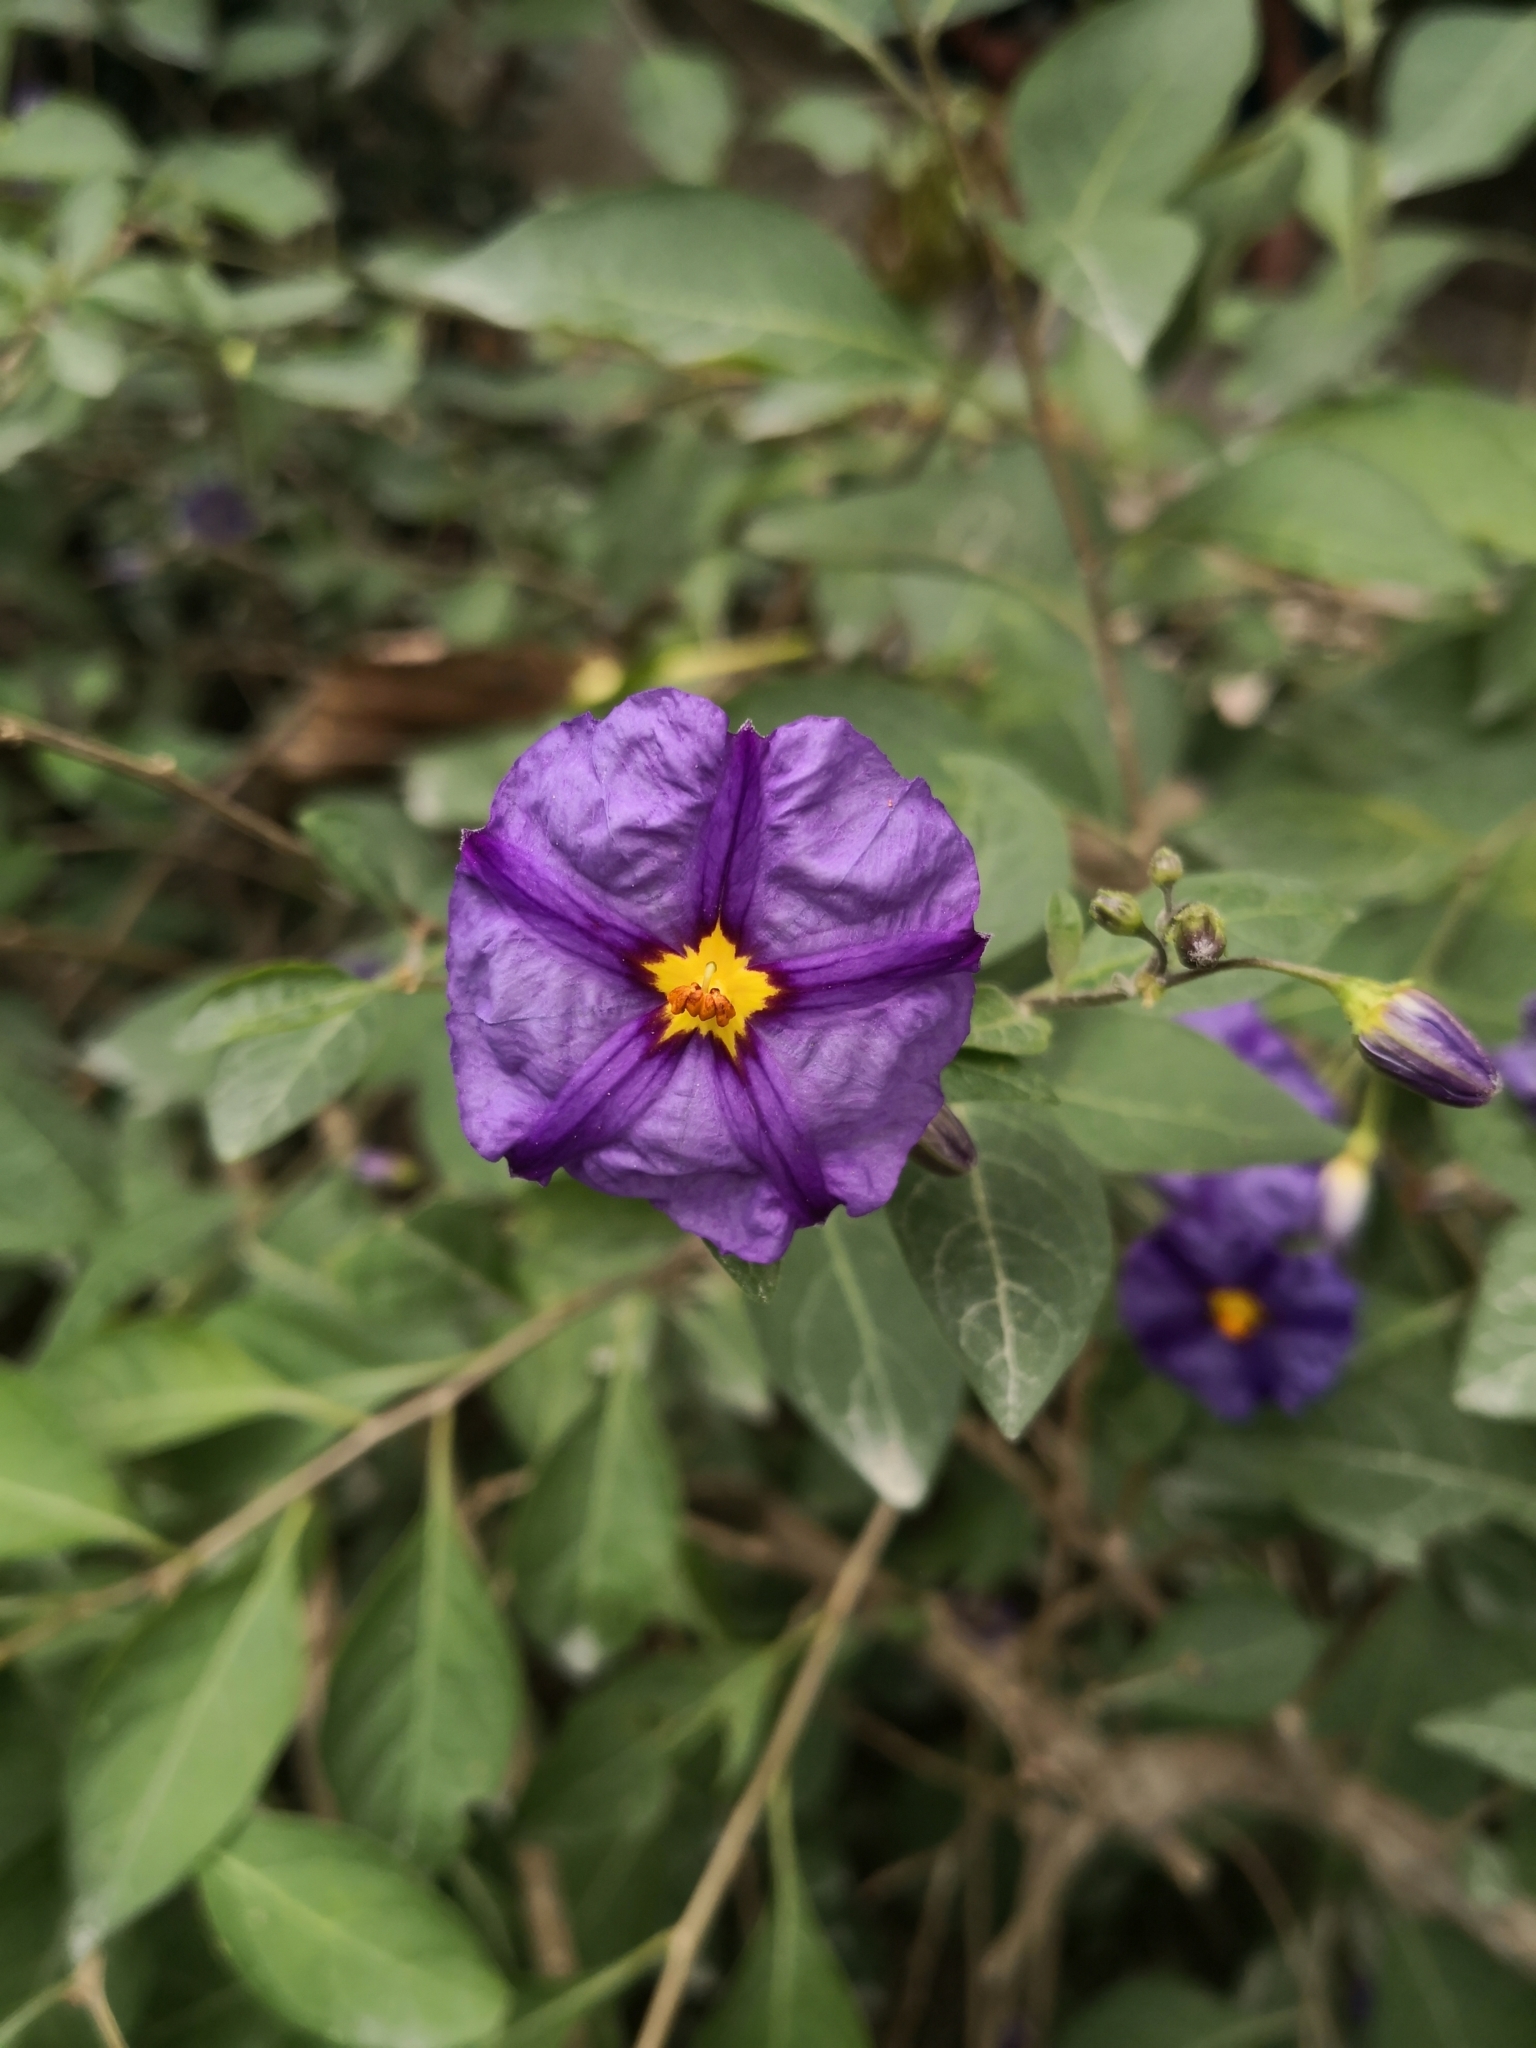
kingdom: Plantae
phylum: Tracheophyta
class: Magnoliopsida
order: Solanales
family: Solanaceae
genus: Lycianthes
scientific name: Lycianthes rantonnetii
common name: Blue potatobush
